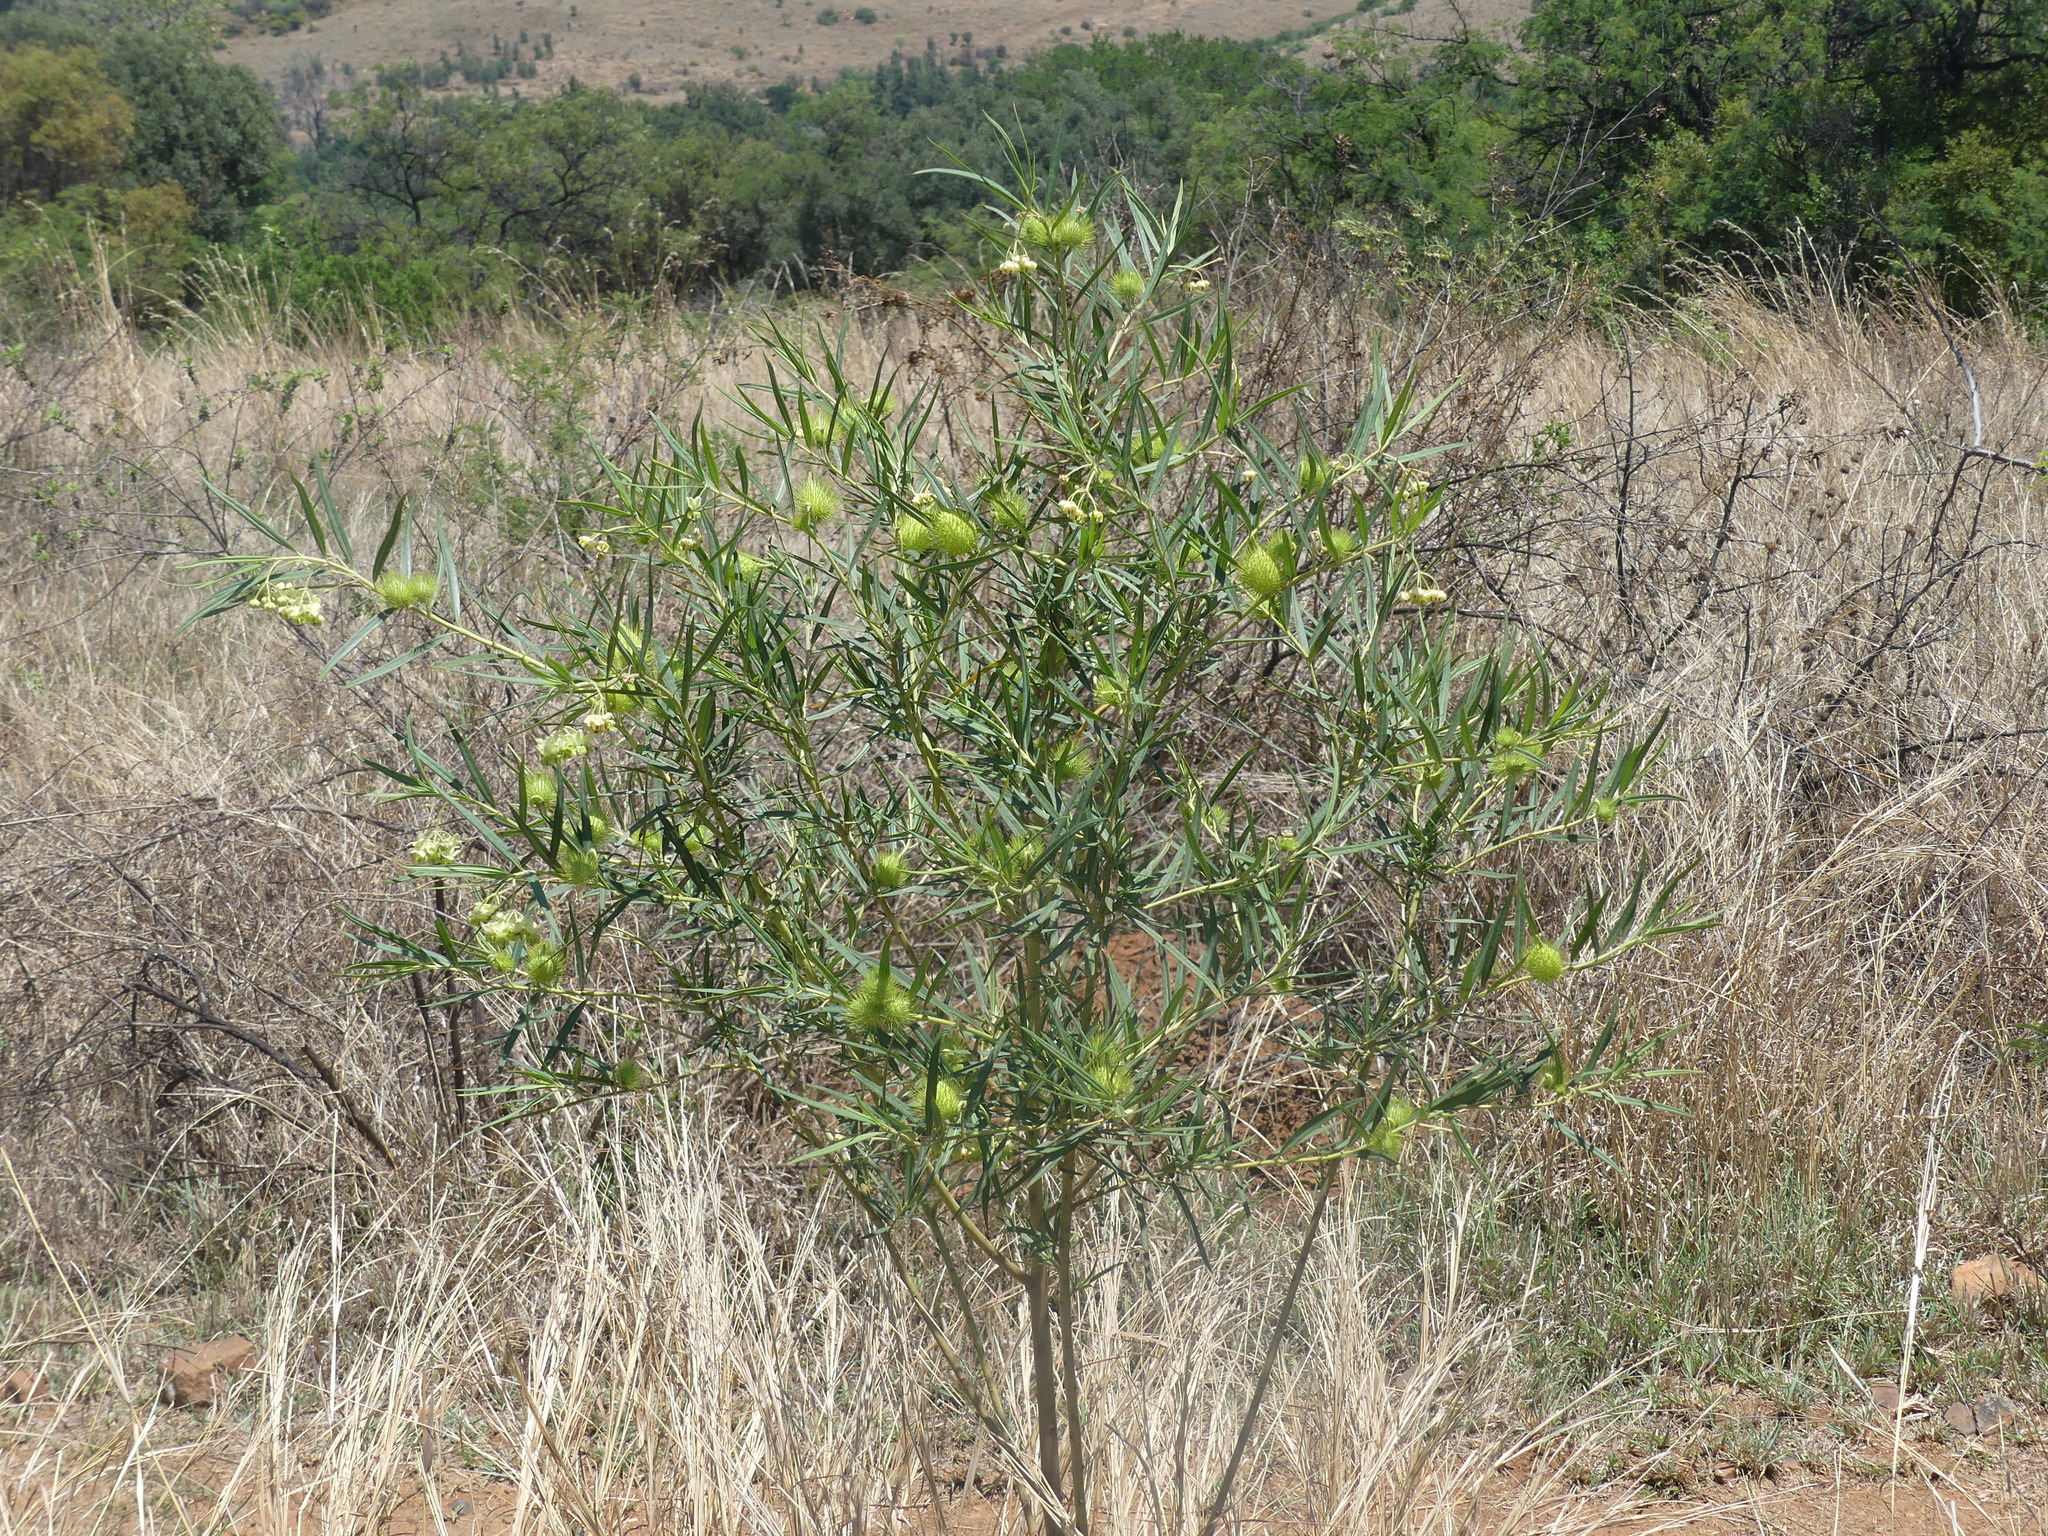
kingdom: Plantae
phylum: Tracheophyta
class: Magnoliopsida
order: Gentianales
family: Apocynaceae
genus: Gomphocarpus
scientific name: Gomphocarpus fruticosus
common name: Milkweed
